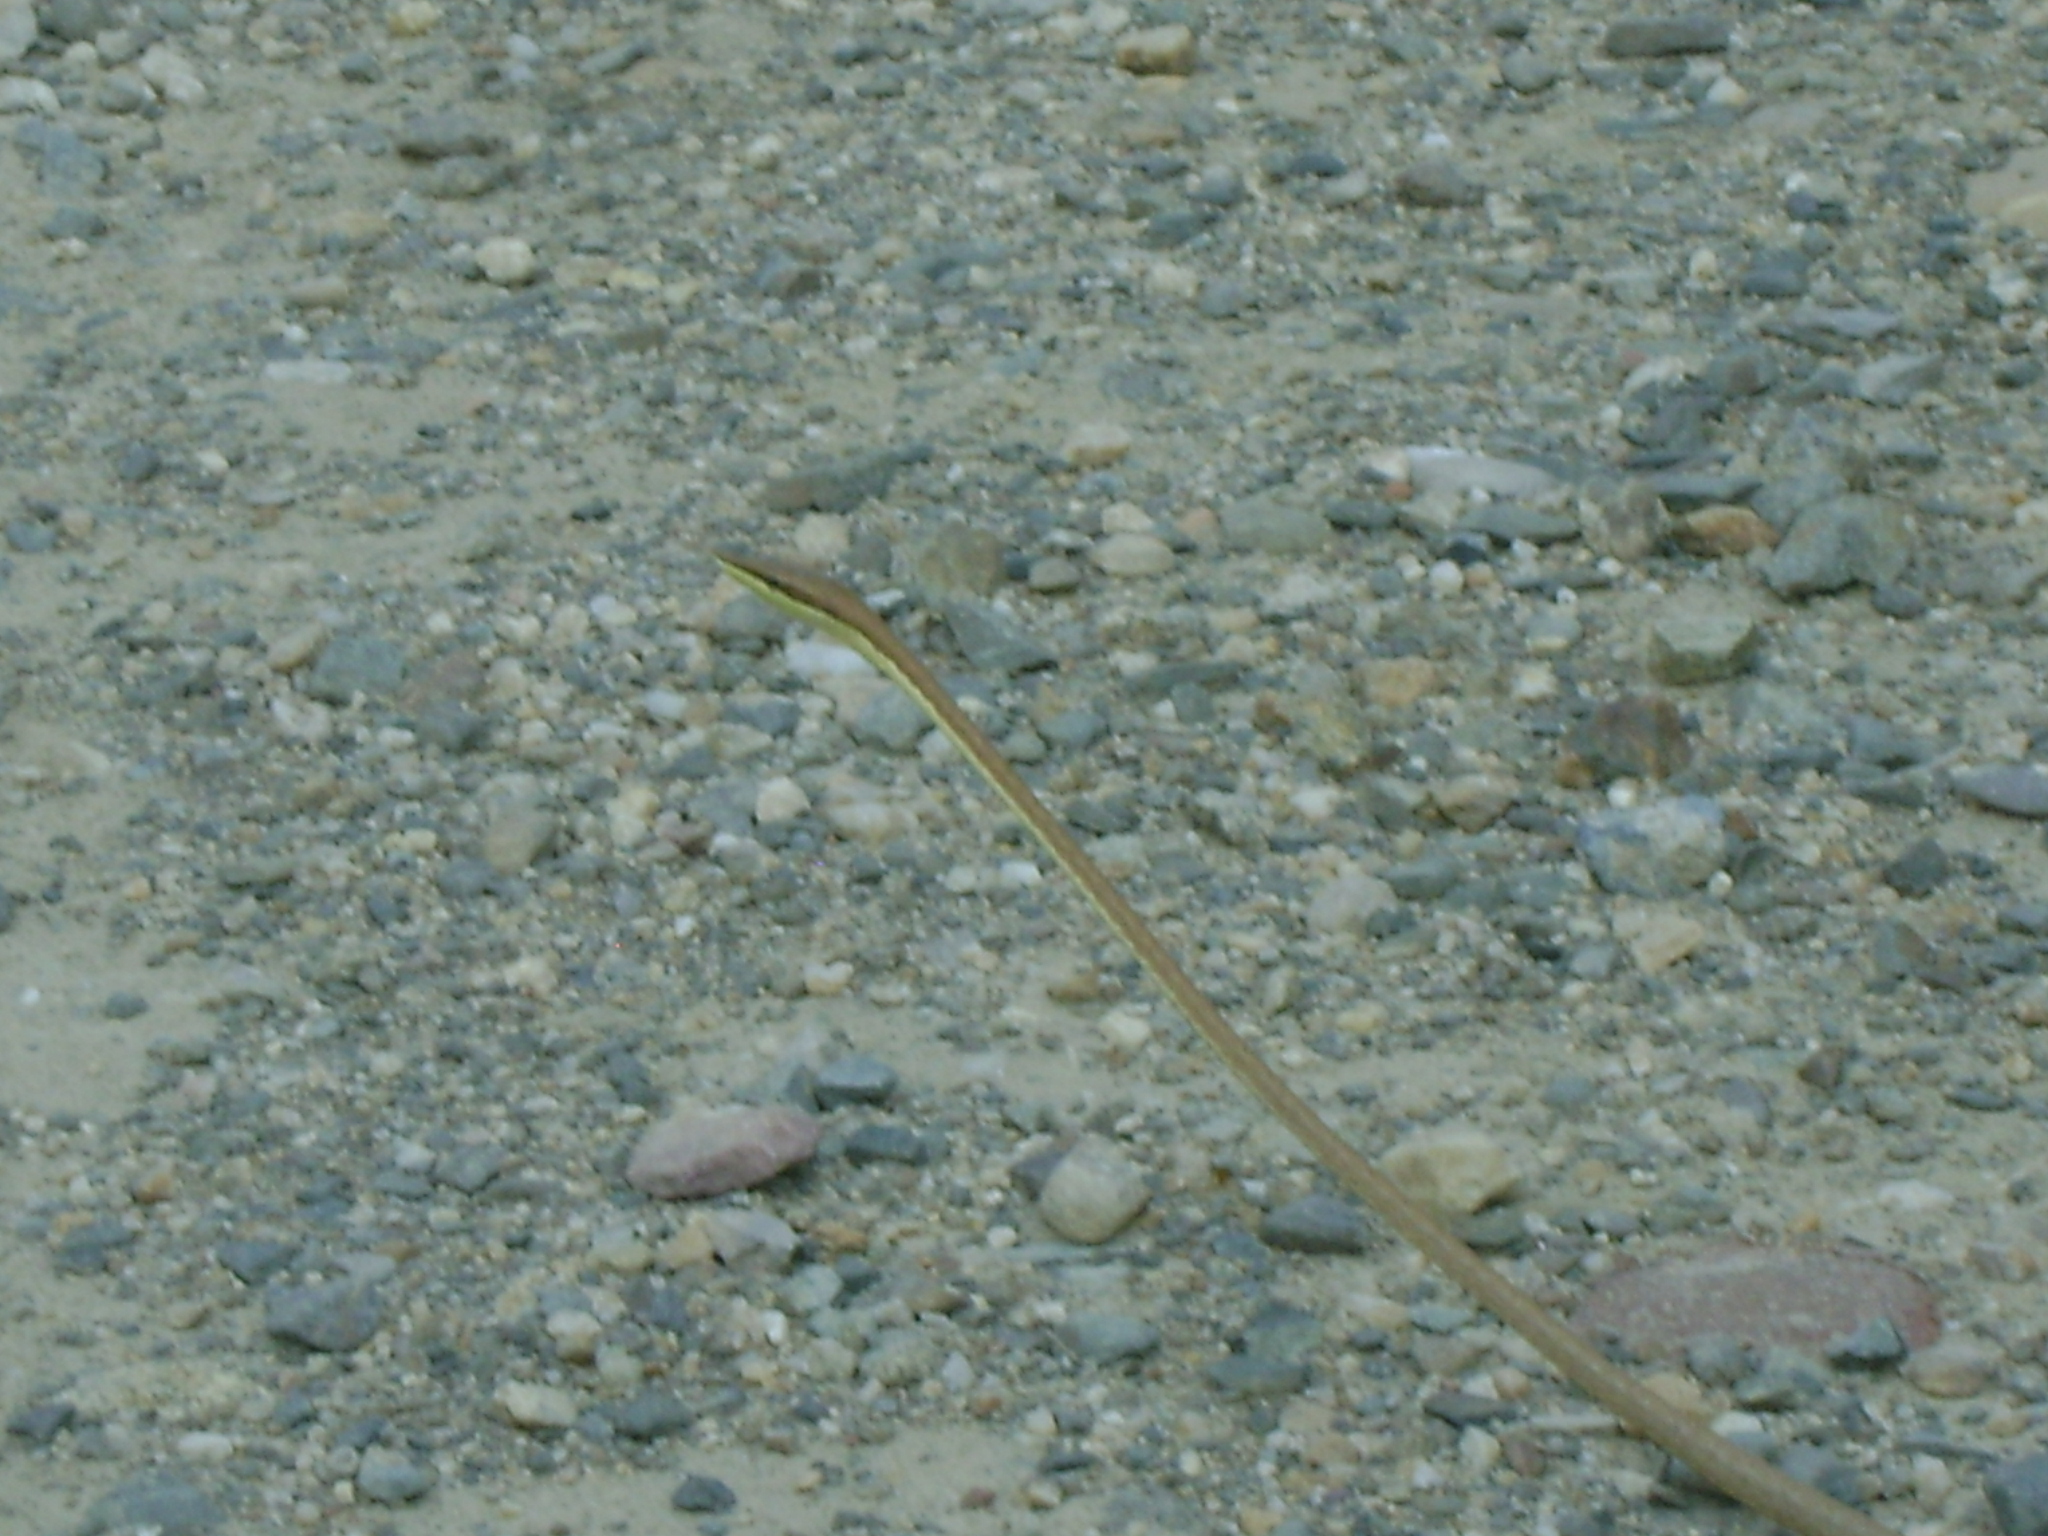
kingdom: Animalia
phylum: Chordata
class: Squamata
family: Colubridae
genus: Oxybelis
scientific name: Oxybelis microphthalmus
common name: Thrornscrub vine snake
